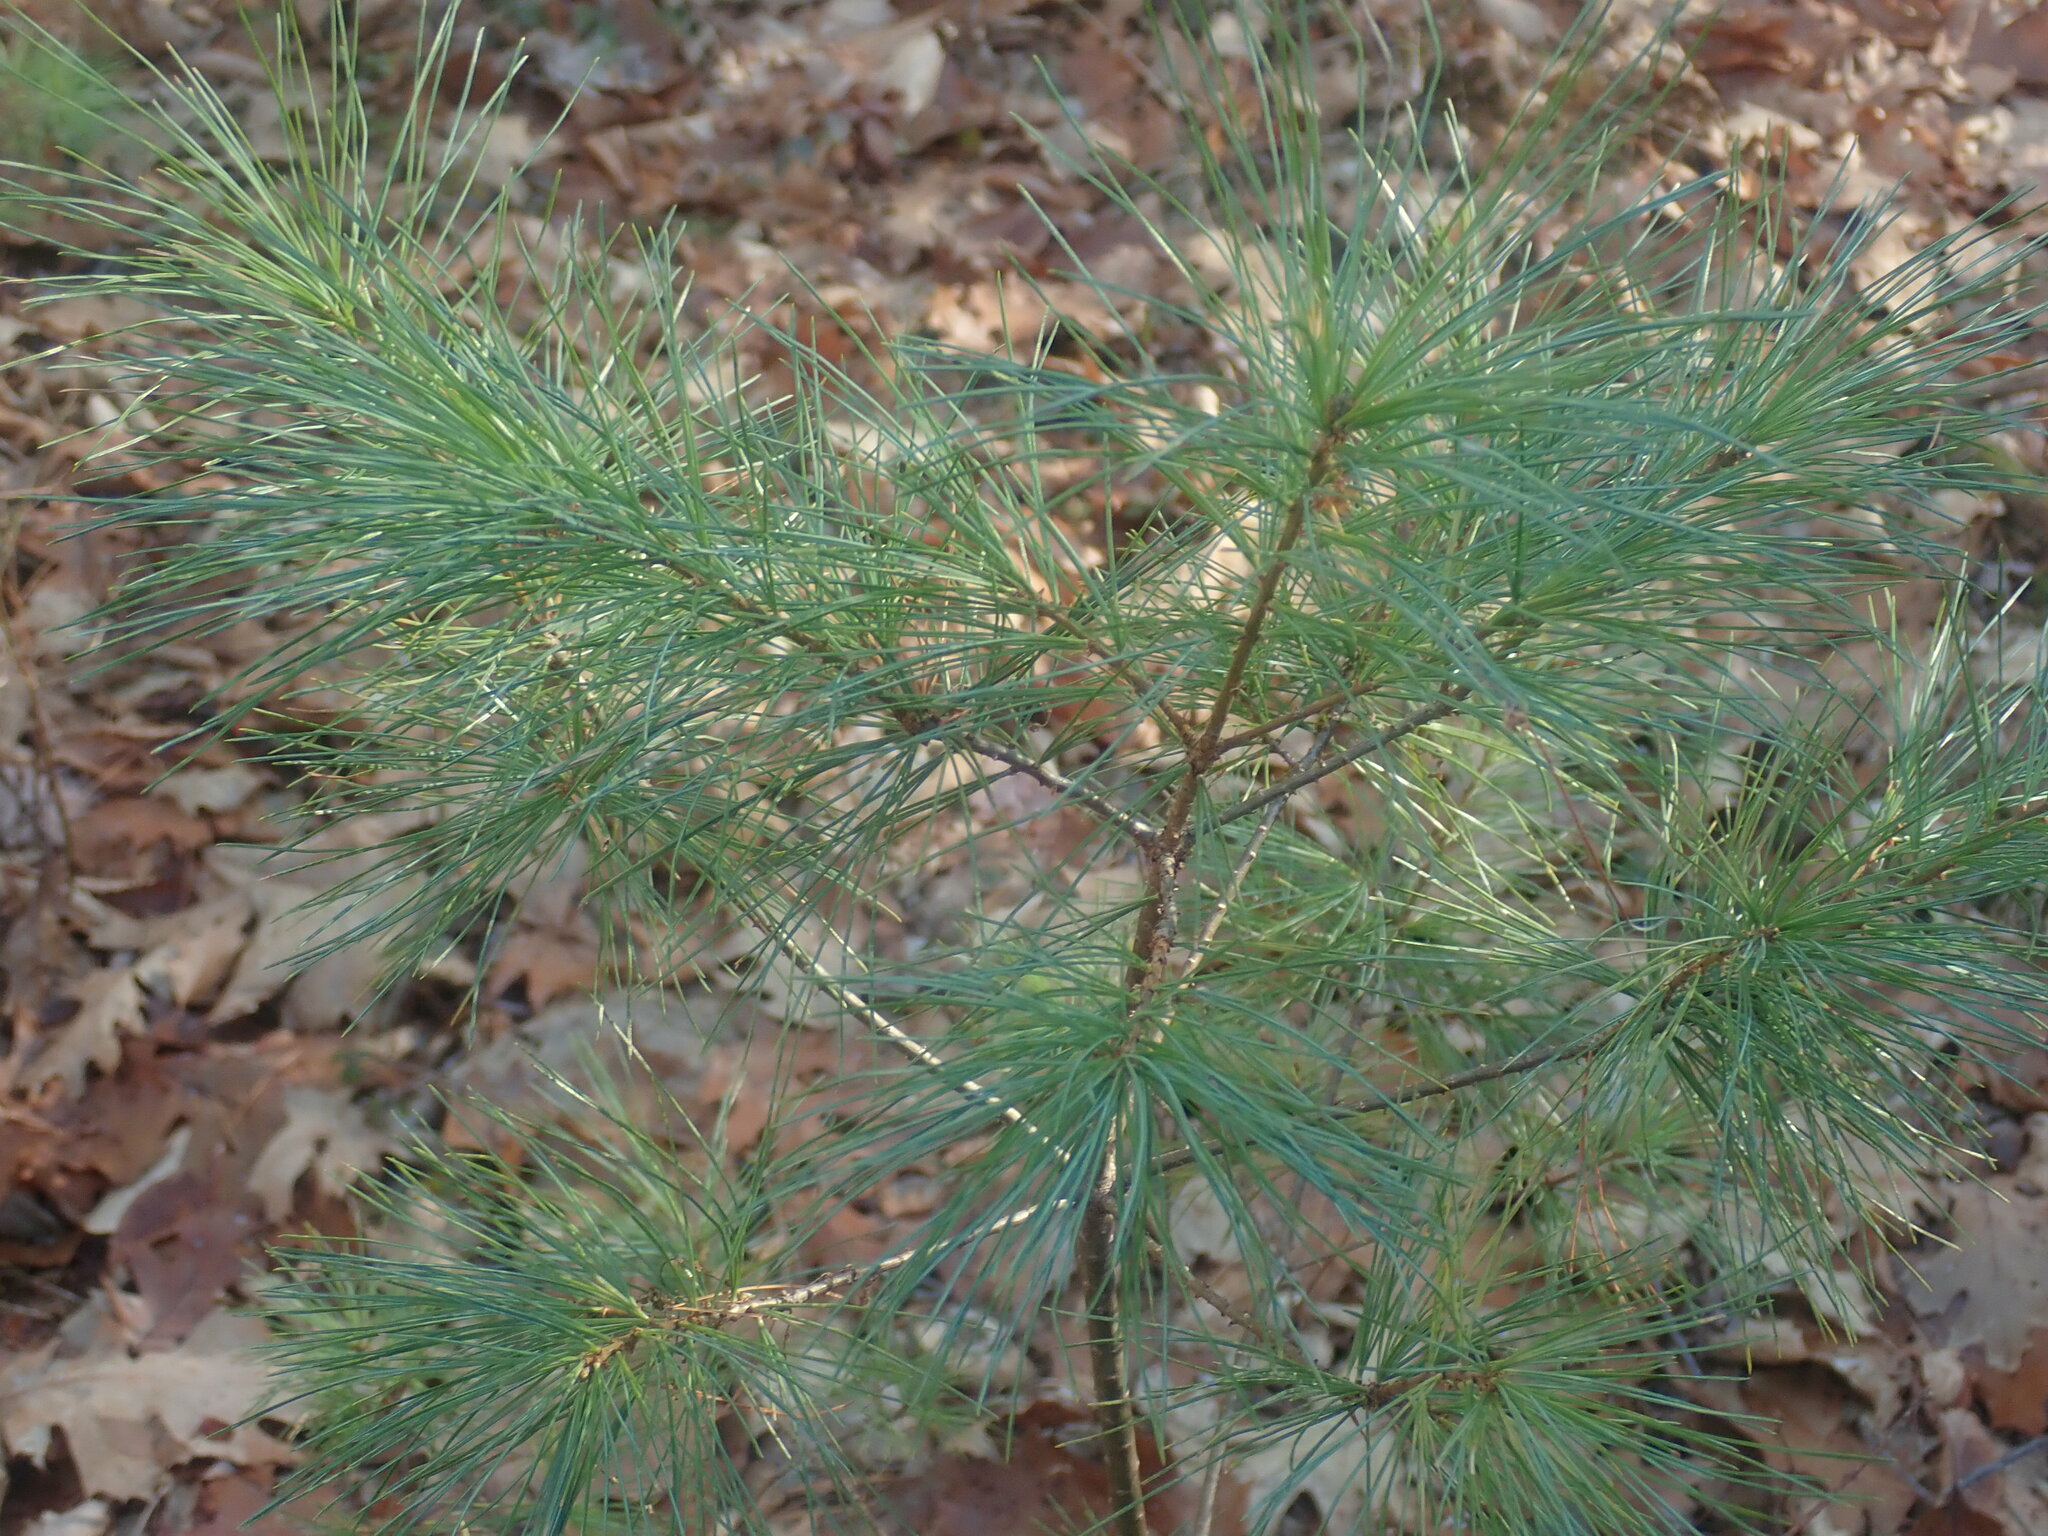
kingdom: Plantae
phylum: Tracheophyta
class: Pinopsida
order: Pinales
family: Pinaceae
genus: Pinus
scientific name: Pinus strobus
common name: Weymouth pine
